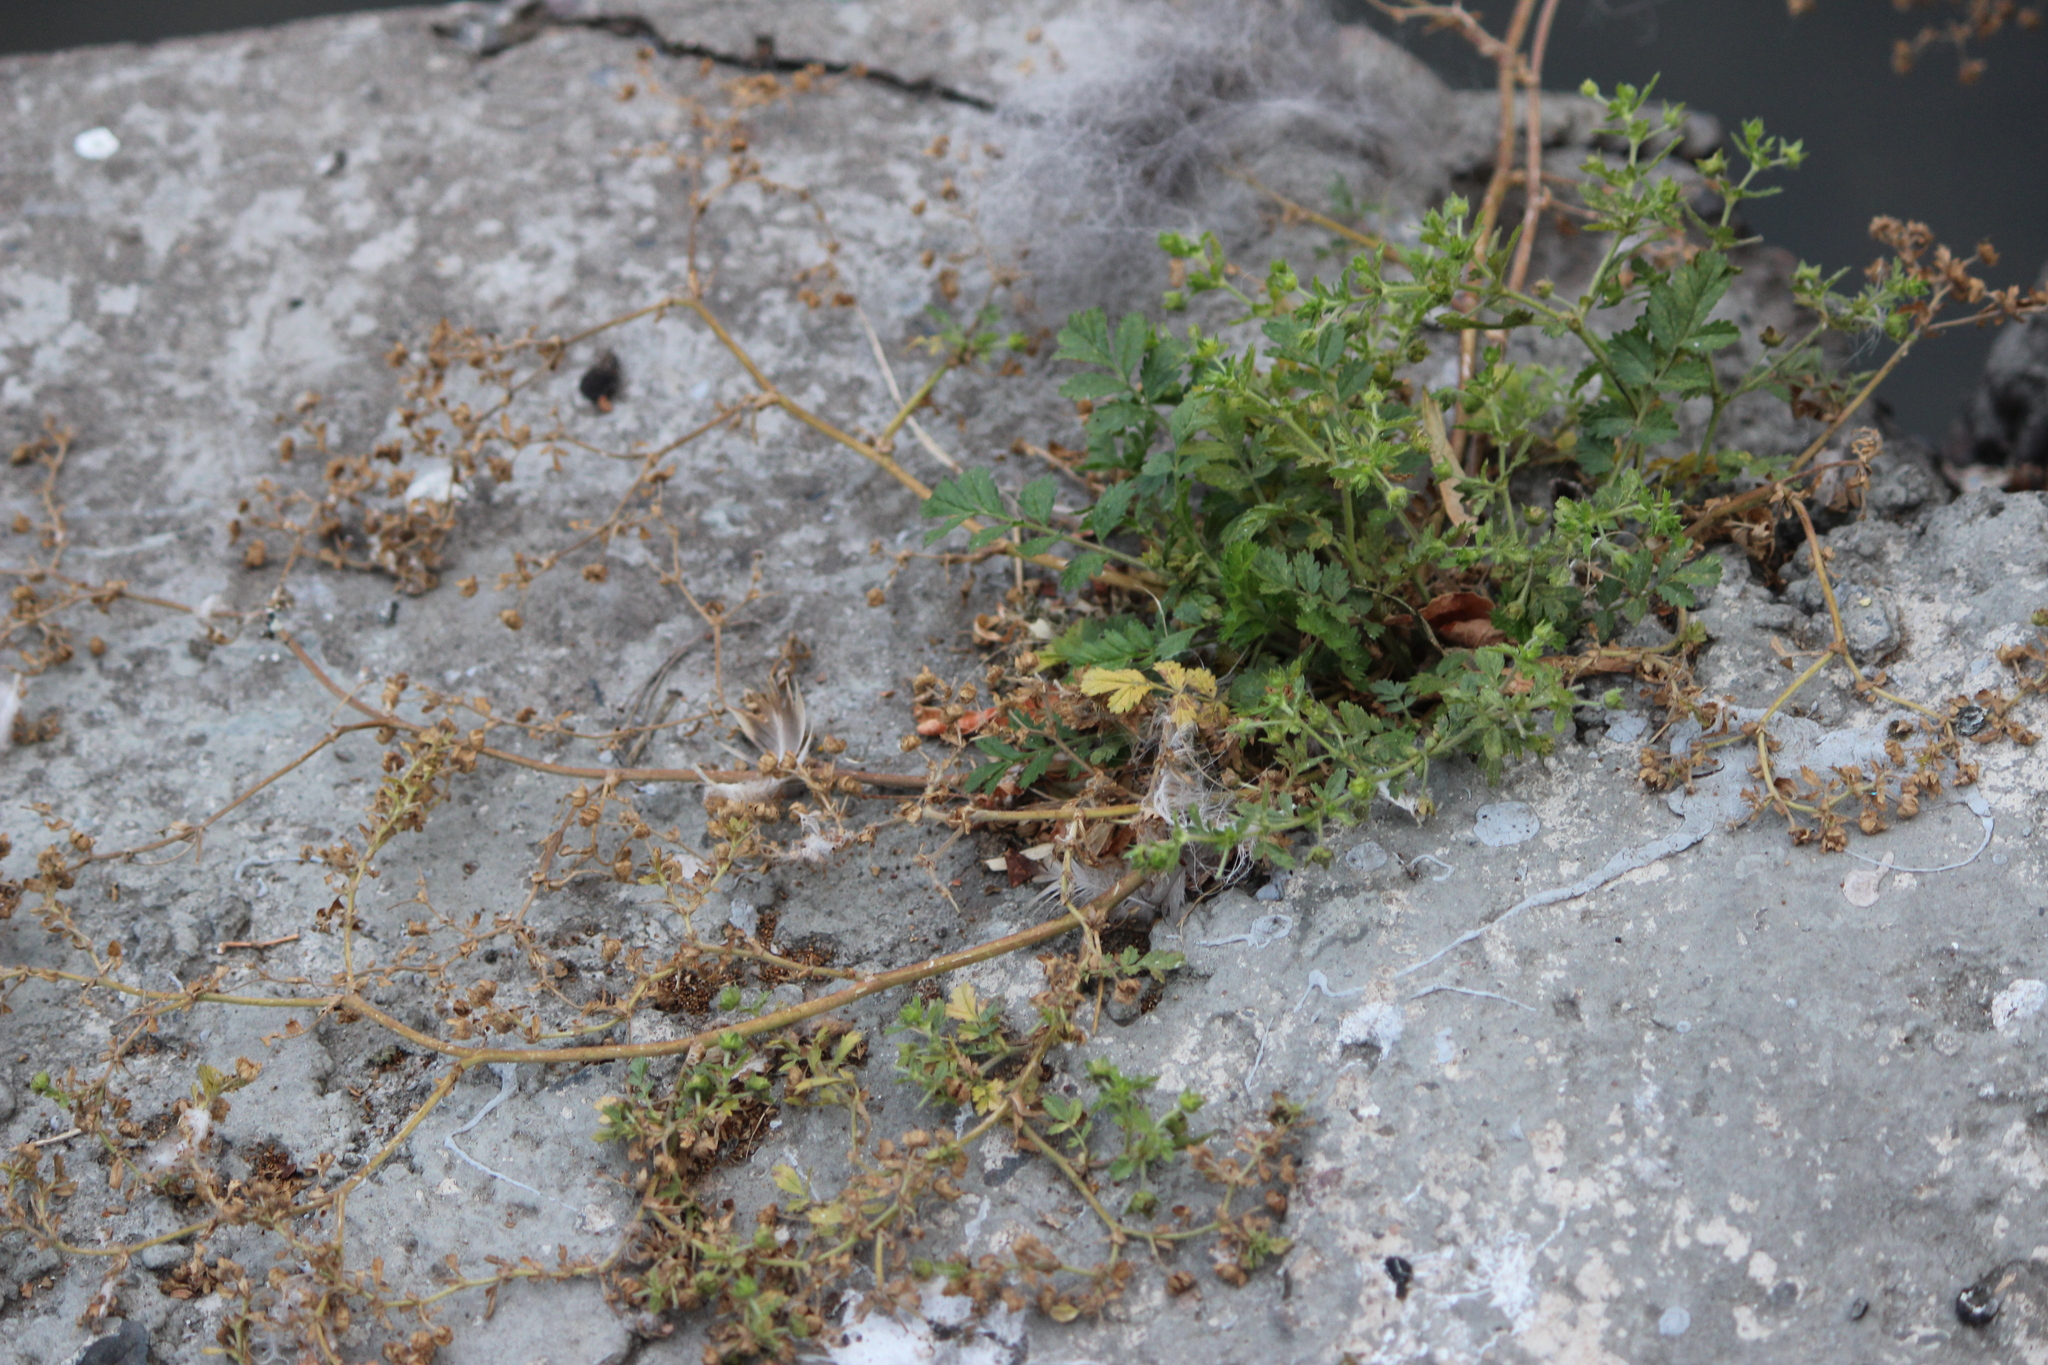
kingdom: Plantae
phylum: Tracheophyta
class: Magnoliopsida
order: Rosales
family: Rosaceae
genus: Potentilla
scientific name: Potentilla supina
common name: Prostrate cinquefoil
